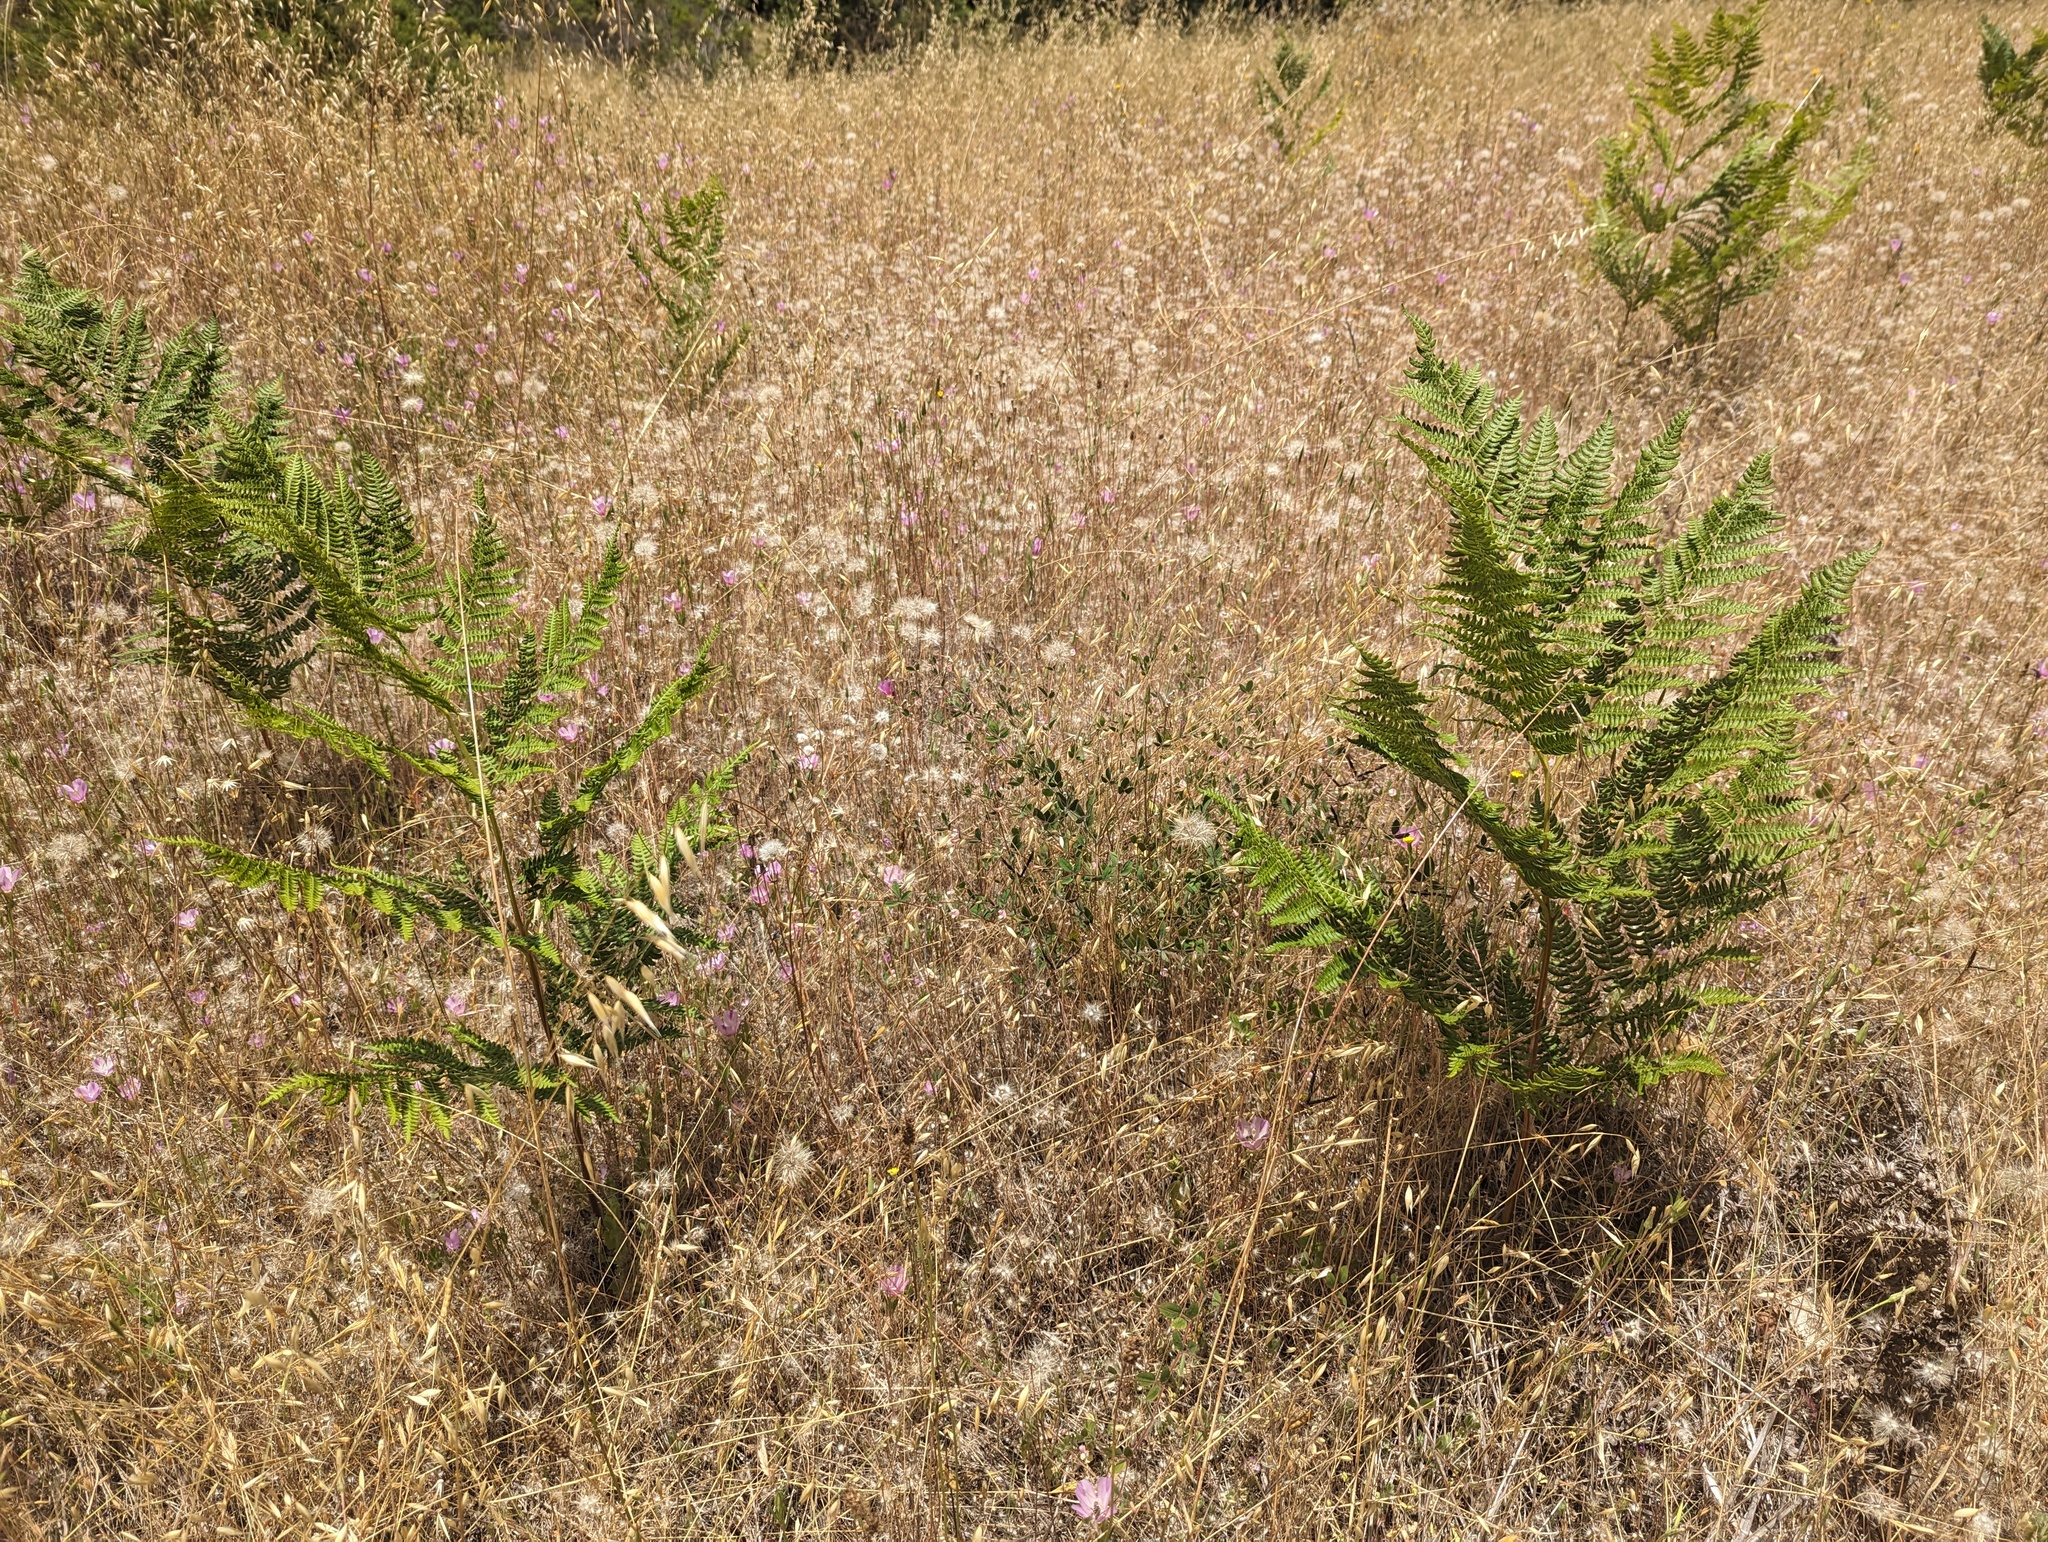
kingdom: Plantae
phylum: Tracheophyta
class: Polypodiopsida
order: Polypodiales
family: Dennstaedtiaceae
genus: Pteridium
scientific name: Pteridium aquilinum
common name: Bracken
